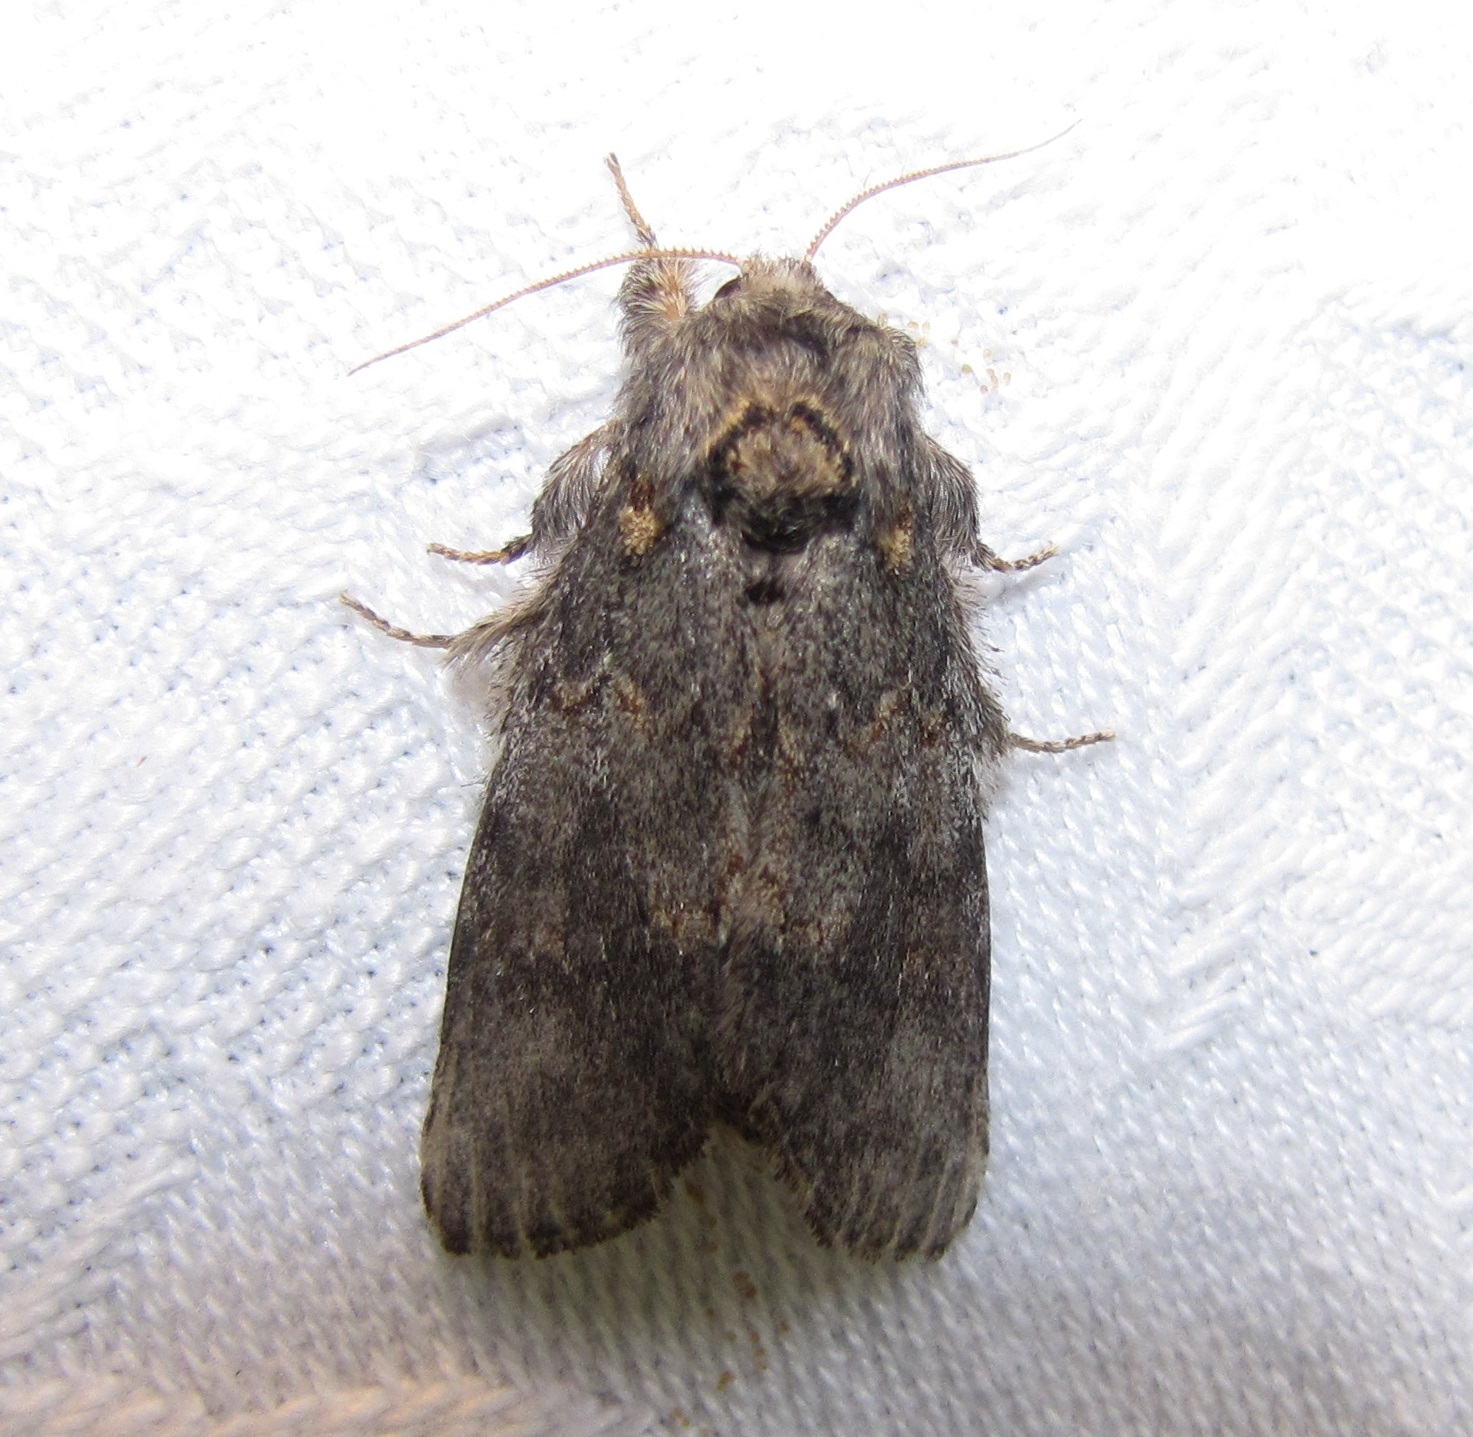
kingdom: Animalia
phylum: Arthropoda
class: Insecta
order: Lepidoptera
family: Notodontidae
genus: Peridea
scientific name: Peridea angulosa
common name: Angulose prominent
